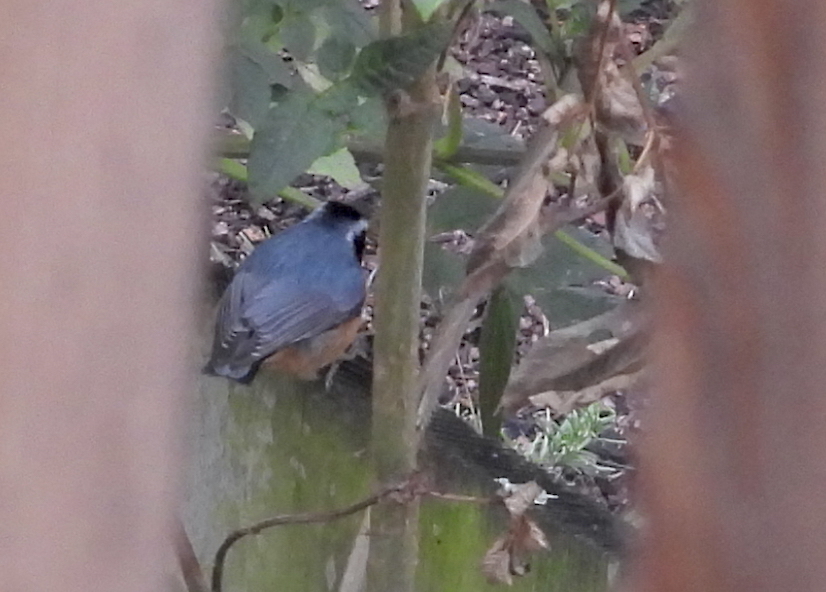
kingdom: Animalia
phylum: Chordata
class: Aves
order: Passeriformes
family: Sittidae
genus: Sitta
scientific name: Sitta canadensis
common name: Red-breasted nuthatch
